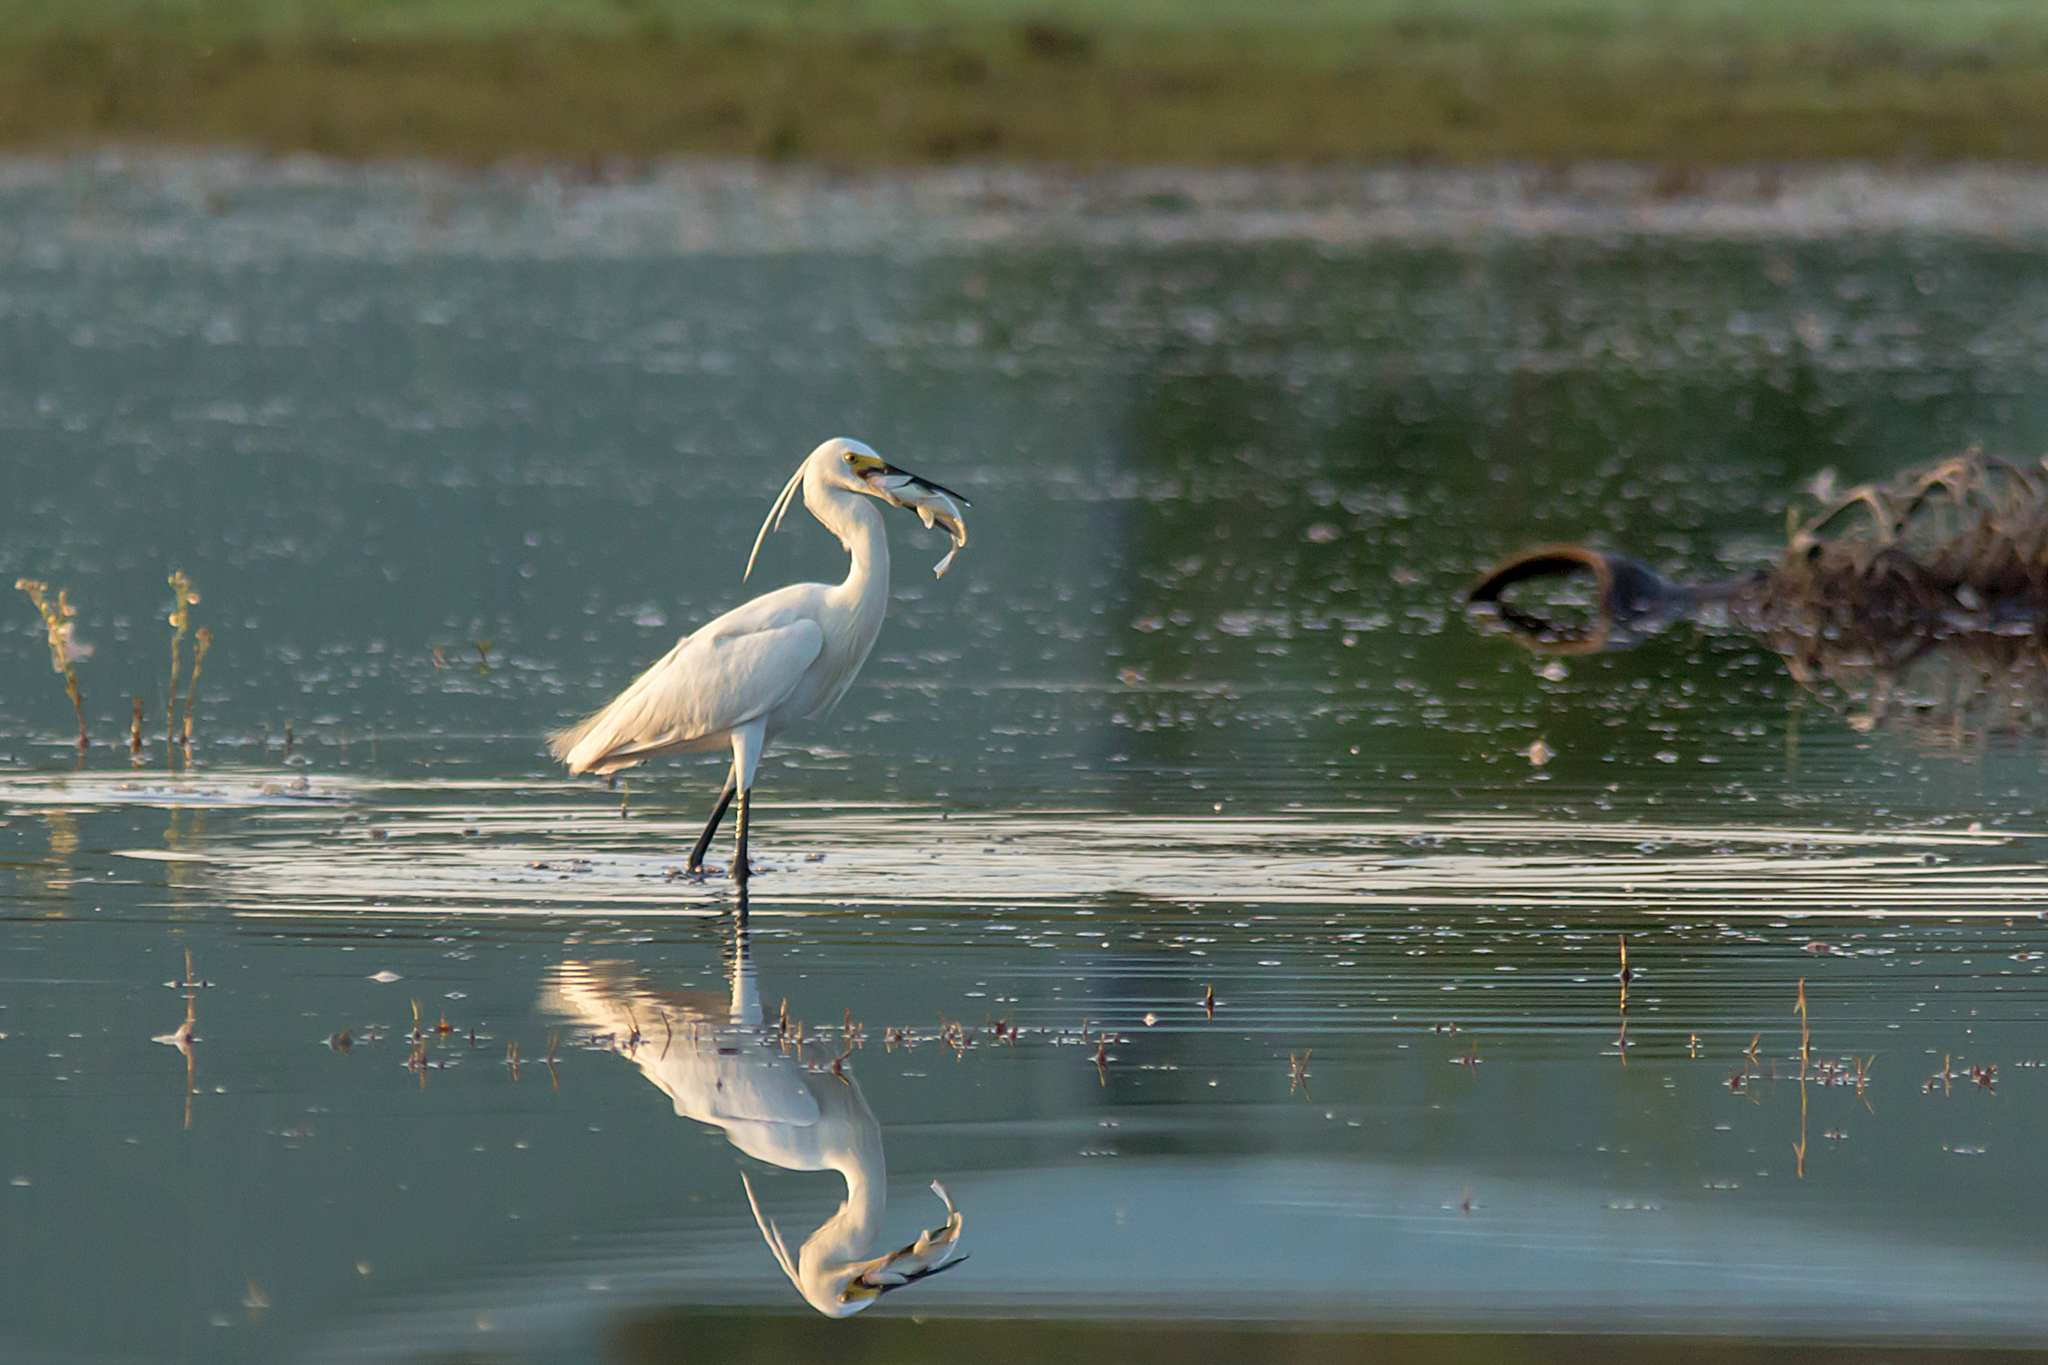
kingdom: Animalia
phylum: Chordata
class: Aves
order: Pelecaniformes
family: Ardeidae
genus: Egretta
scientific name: Egretta garzetta
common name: Little egret
